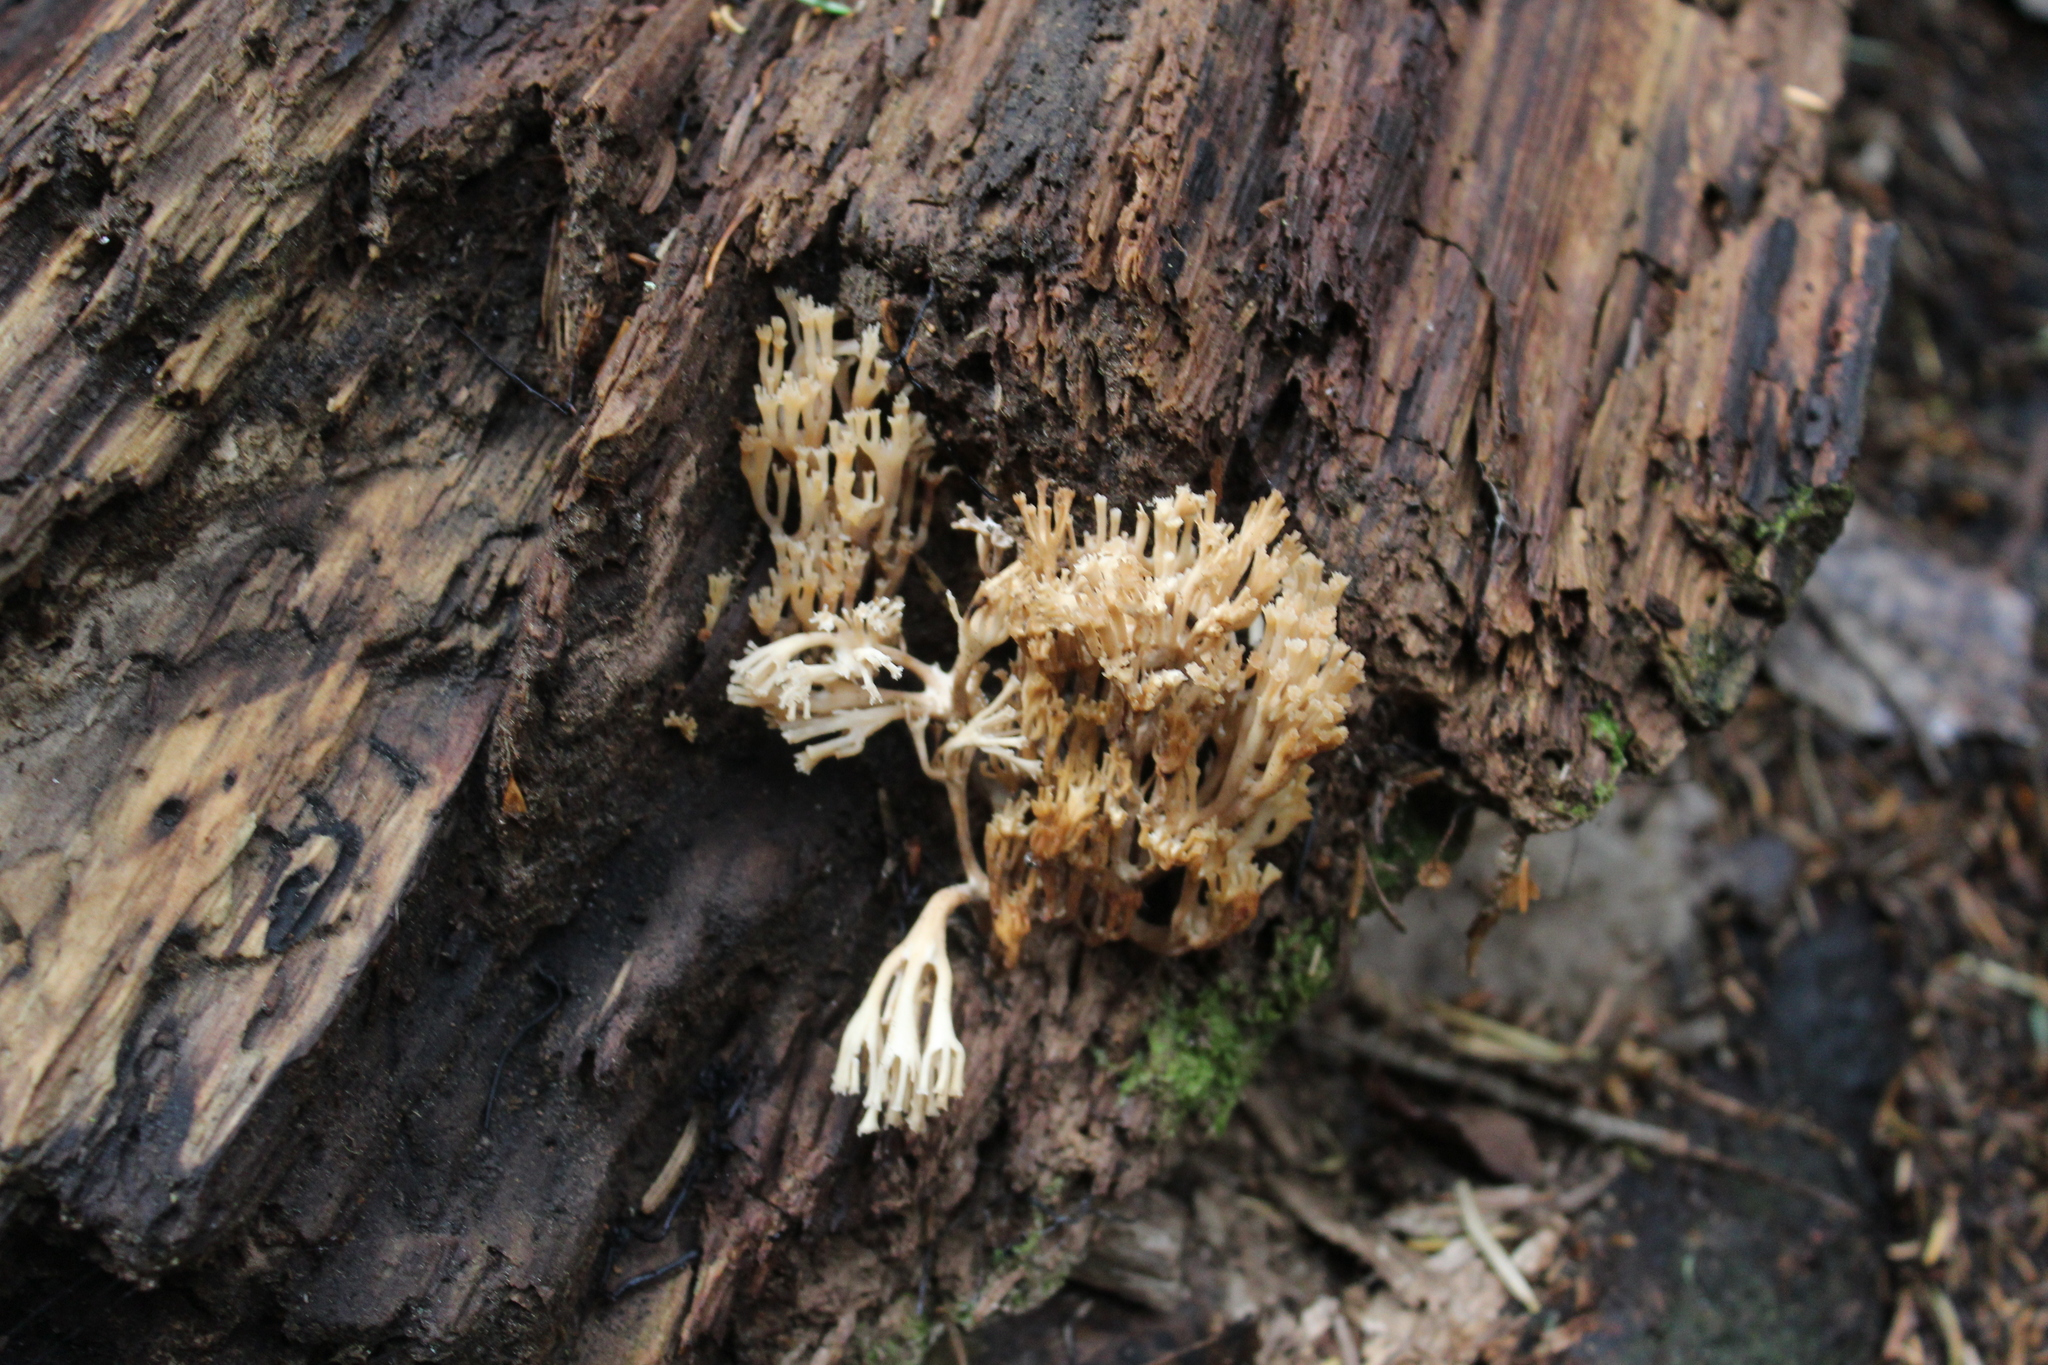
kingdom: Fungi
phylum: Basidiomycota
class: Agaricomycetes
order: Russulales
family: Auriscalpiaceae
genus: Artomyces
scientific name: Artomyces pyxidatus
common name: Crown-tipped coral fungus
